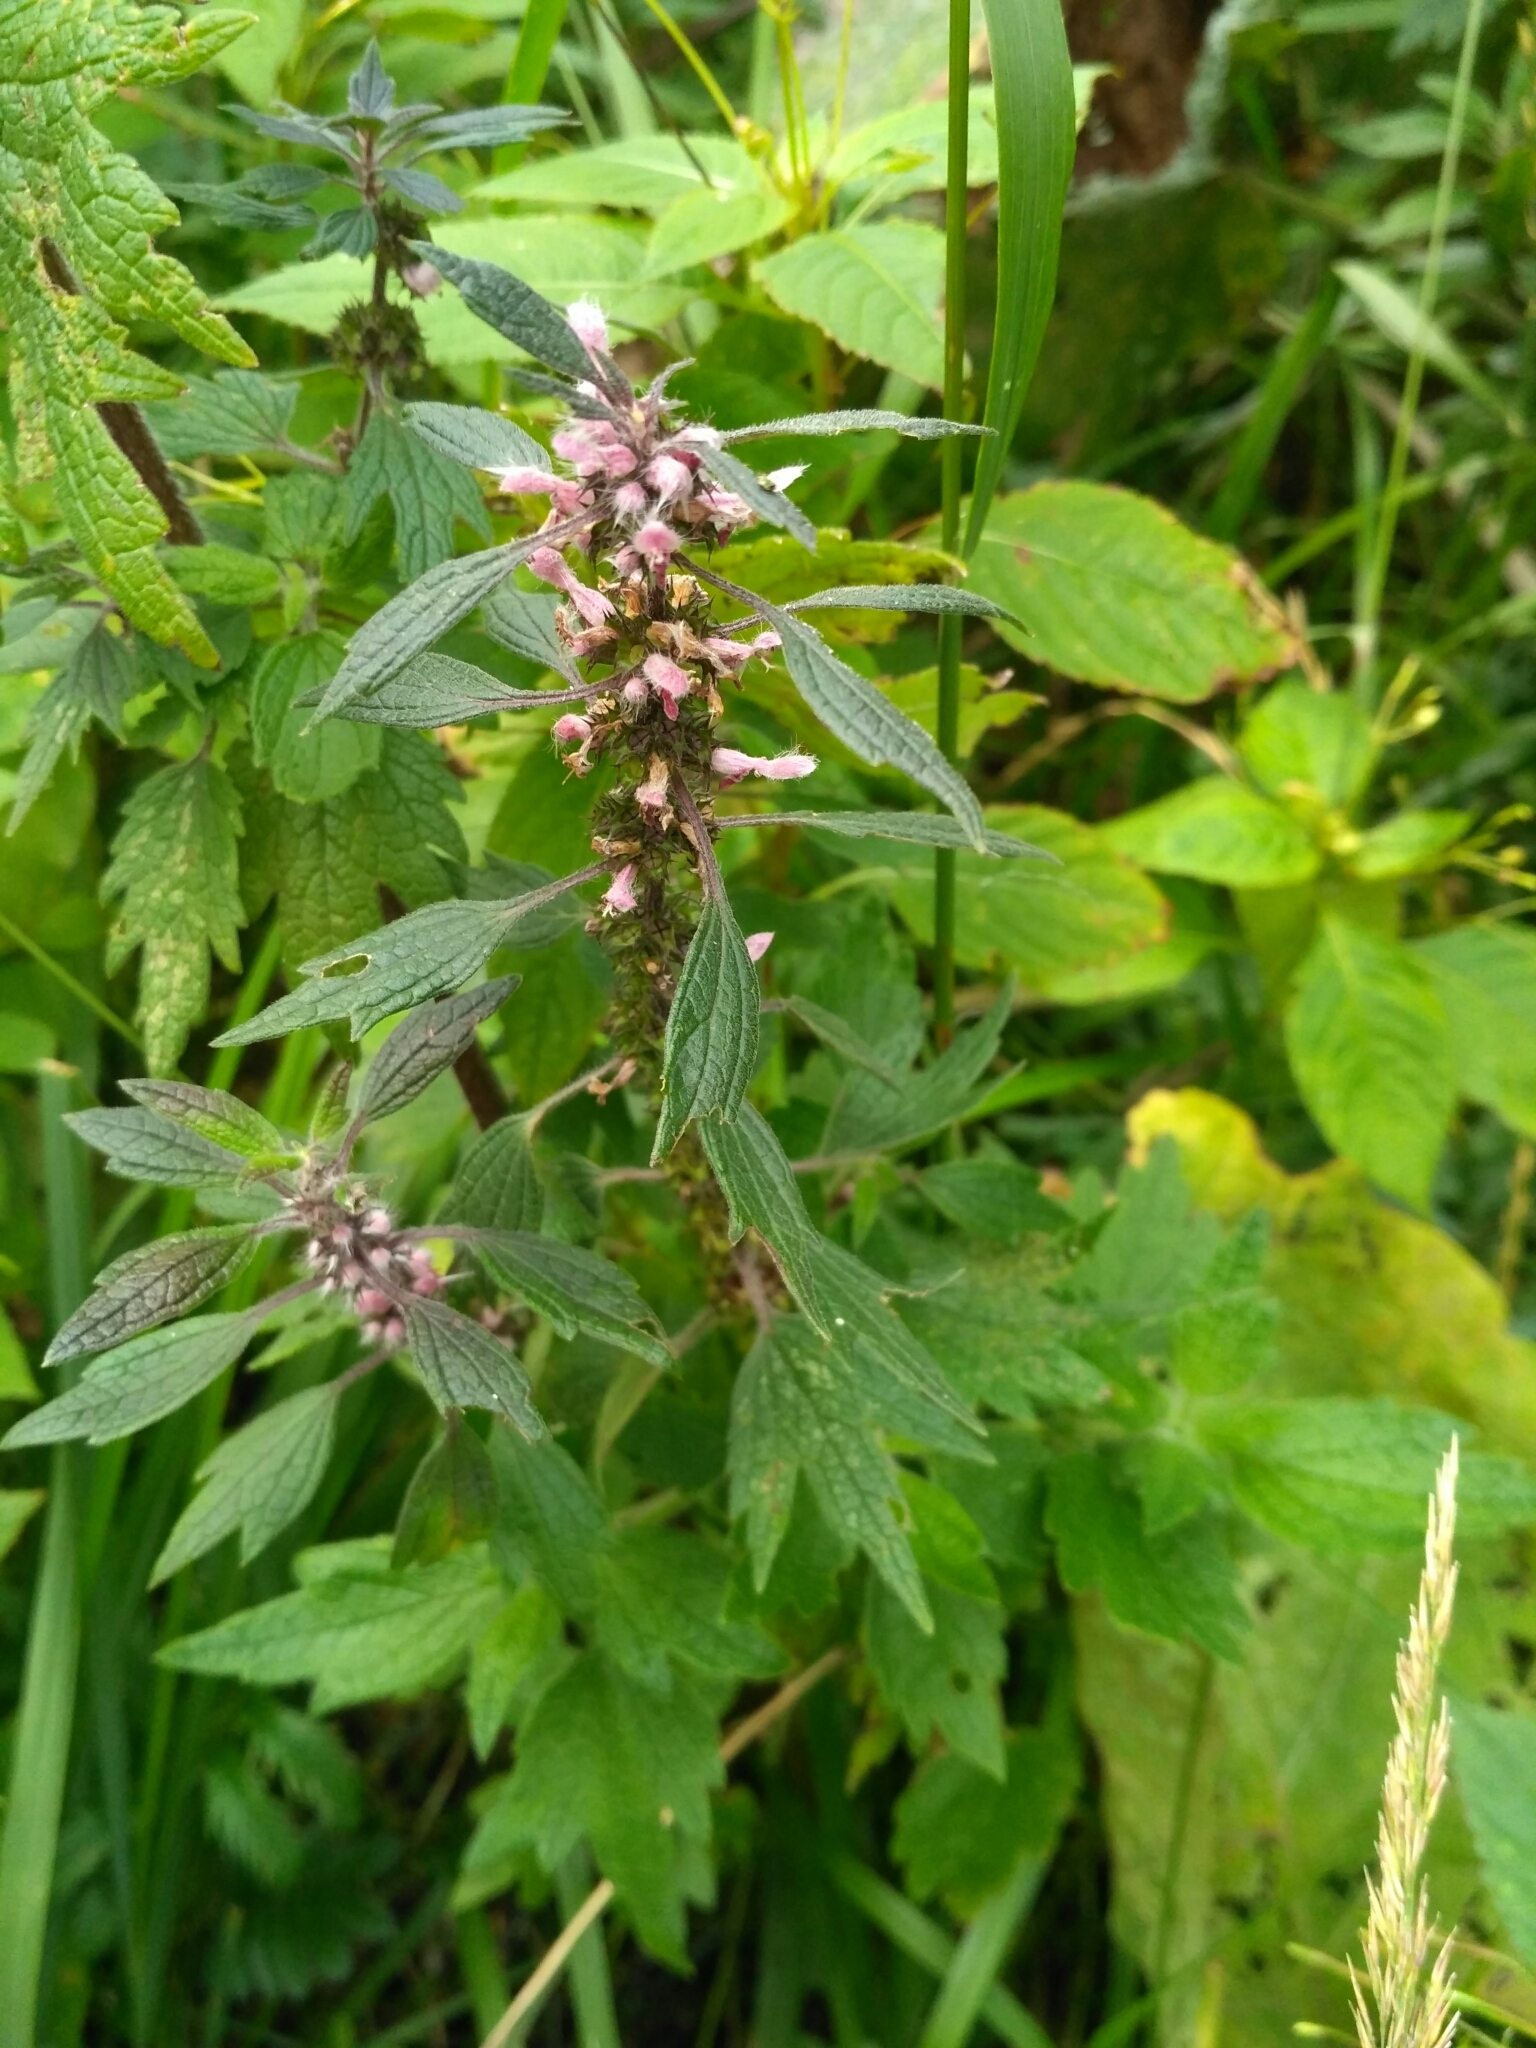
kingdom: Plantae
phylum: Tracheophyta
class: Magnoliopsida
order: Lamiales
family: Lamiaceae
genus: Leonurus
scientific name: Leonurus quinquelobatus
